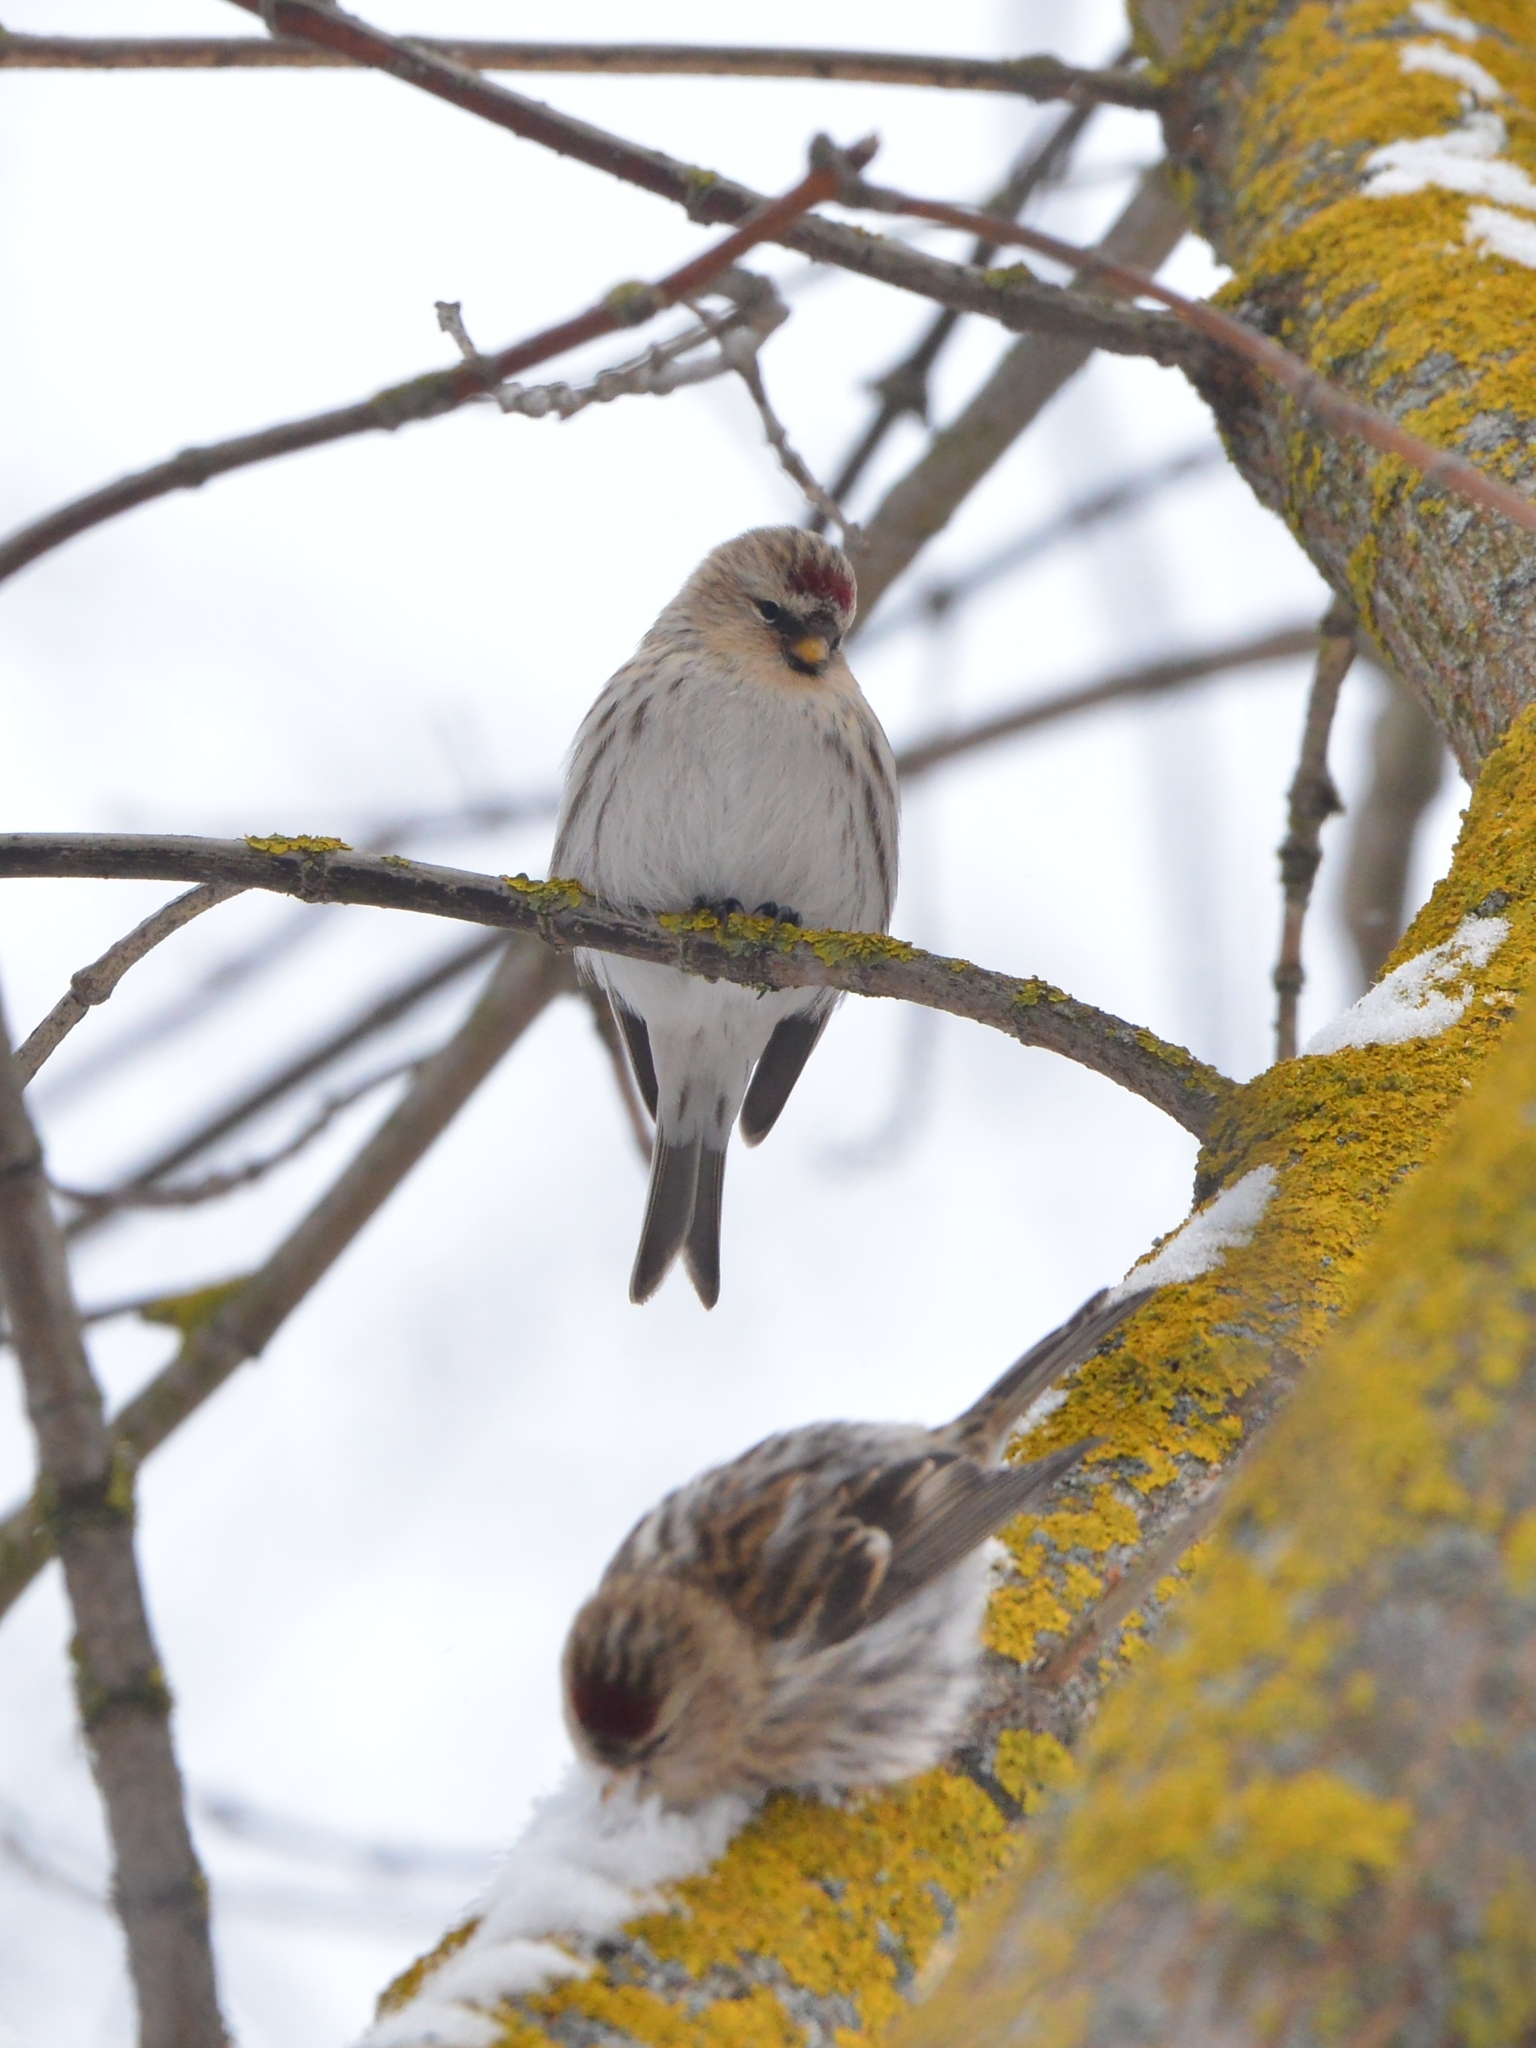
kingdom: Animalia
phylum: Chordata
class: Aves
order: Passeriformes
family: Fringillidae
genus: Acanthis
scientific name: Acanthis flammea
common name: Common redpoll
